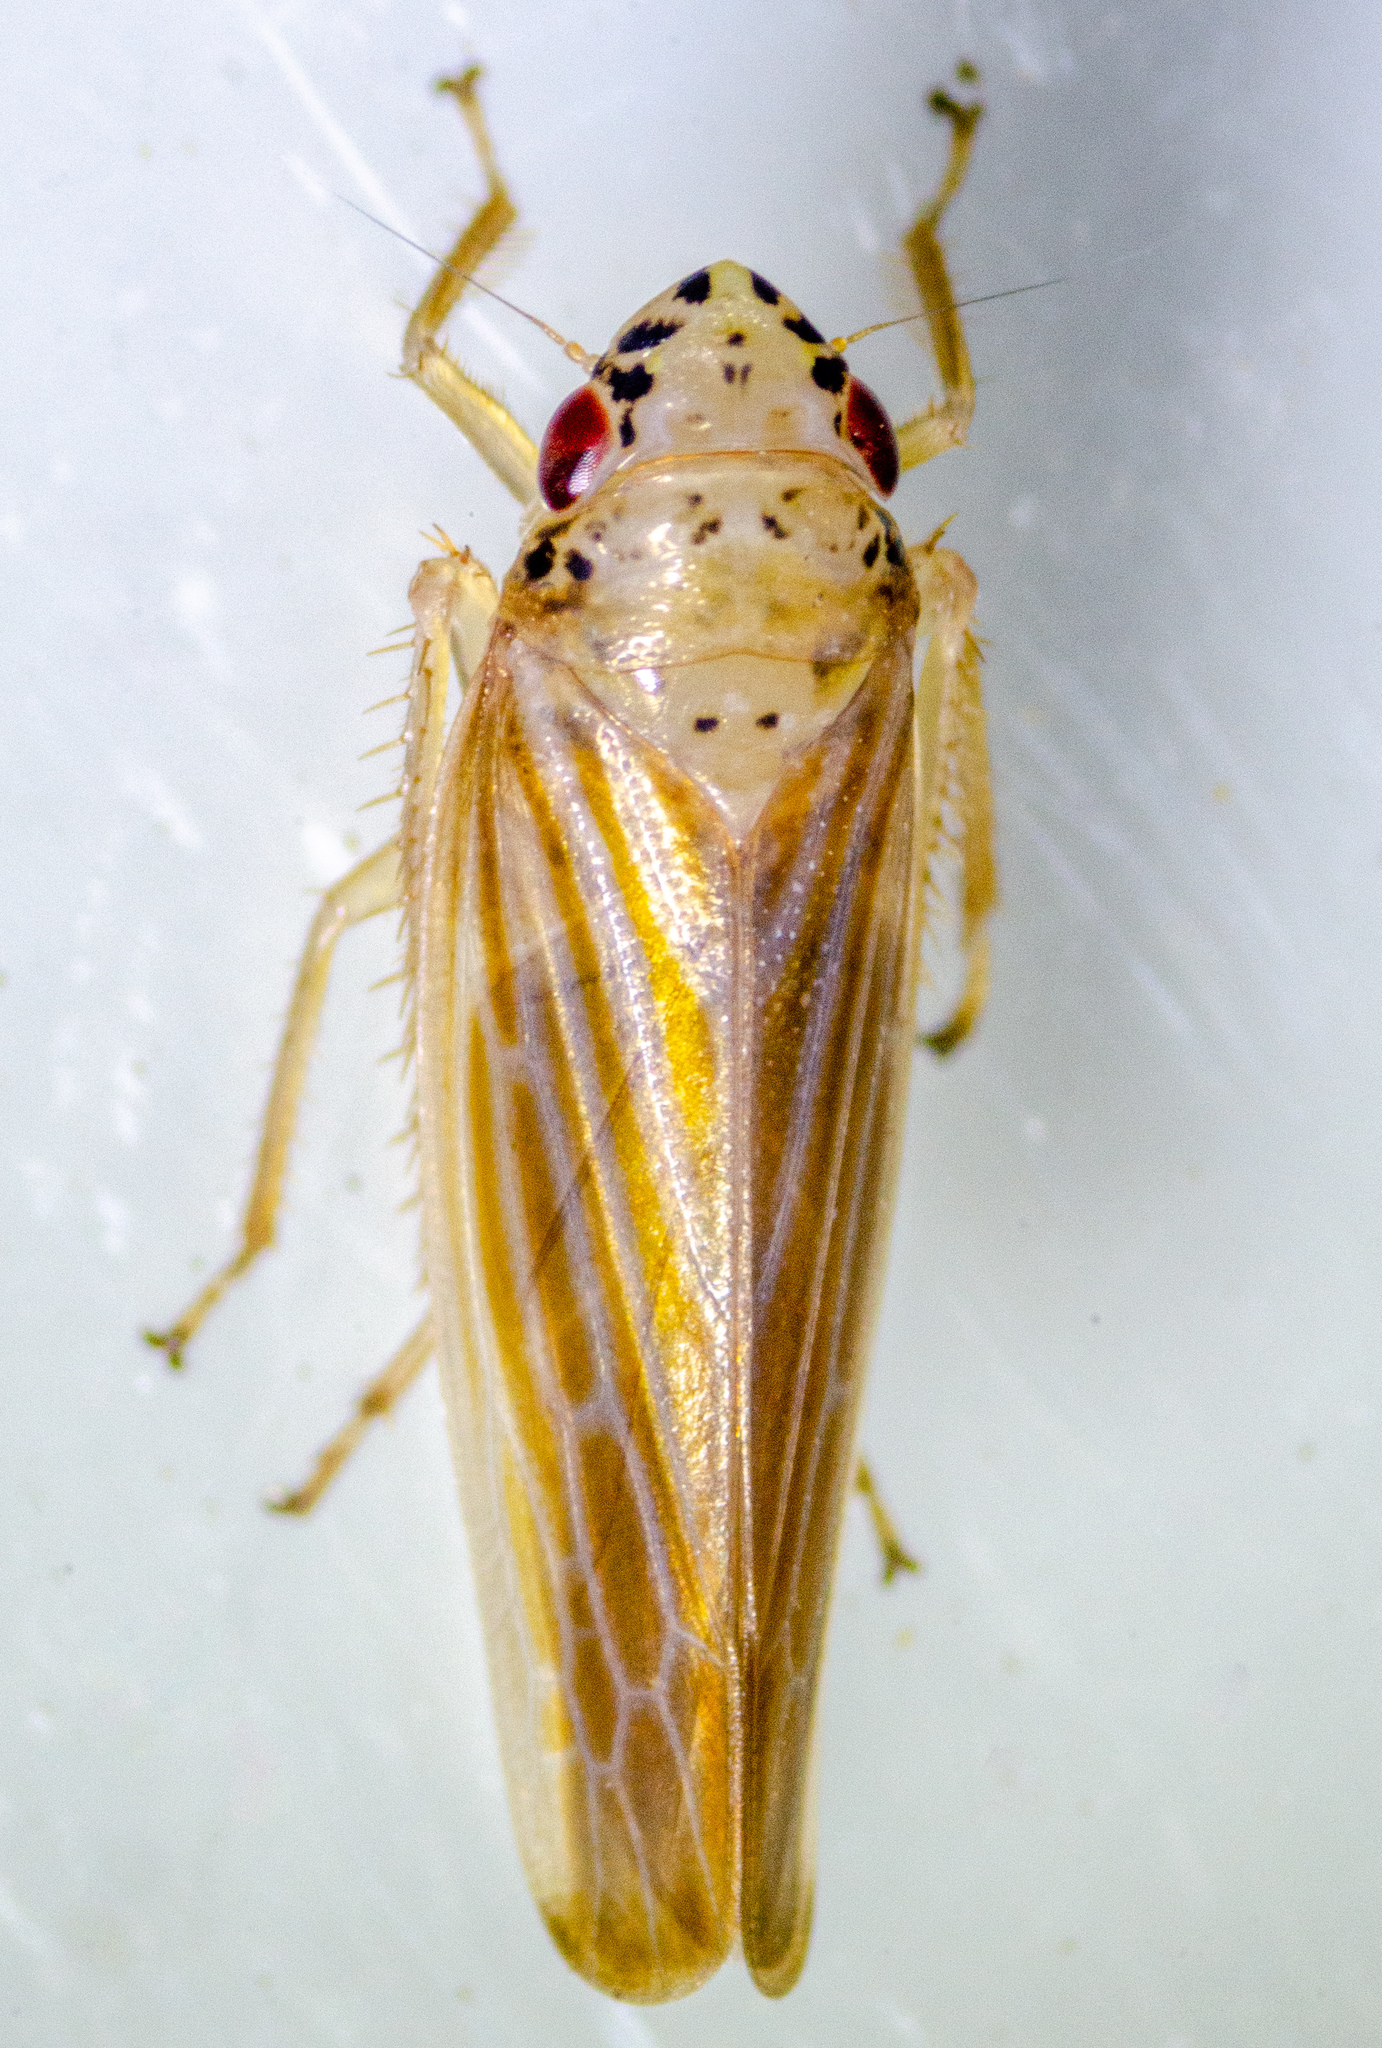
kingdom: Animalia
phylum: Arthropoda
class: Insecta
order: Hemiptera
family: Cicadellidae
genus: Pagaronia
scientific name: Pagaronia triunata
